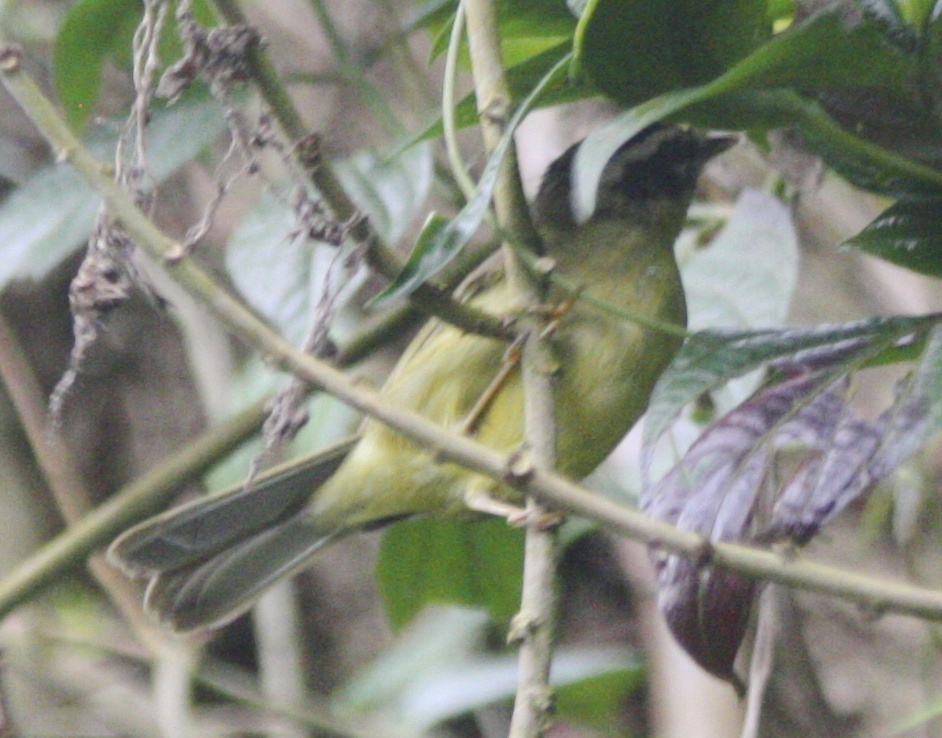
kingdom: Animalia
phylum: Chordata
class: Aves
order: Passeriformes
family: Parulidae
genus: Basileuterus
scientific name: Basileuterus tristriatus
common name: Three-striped warbler
